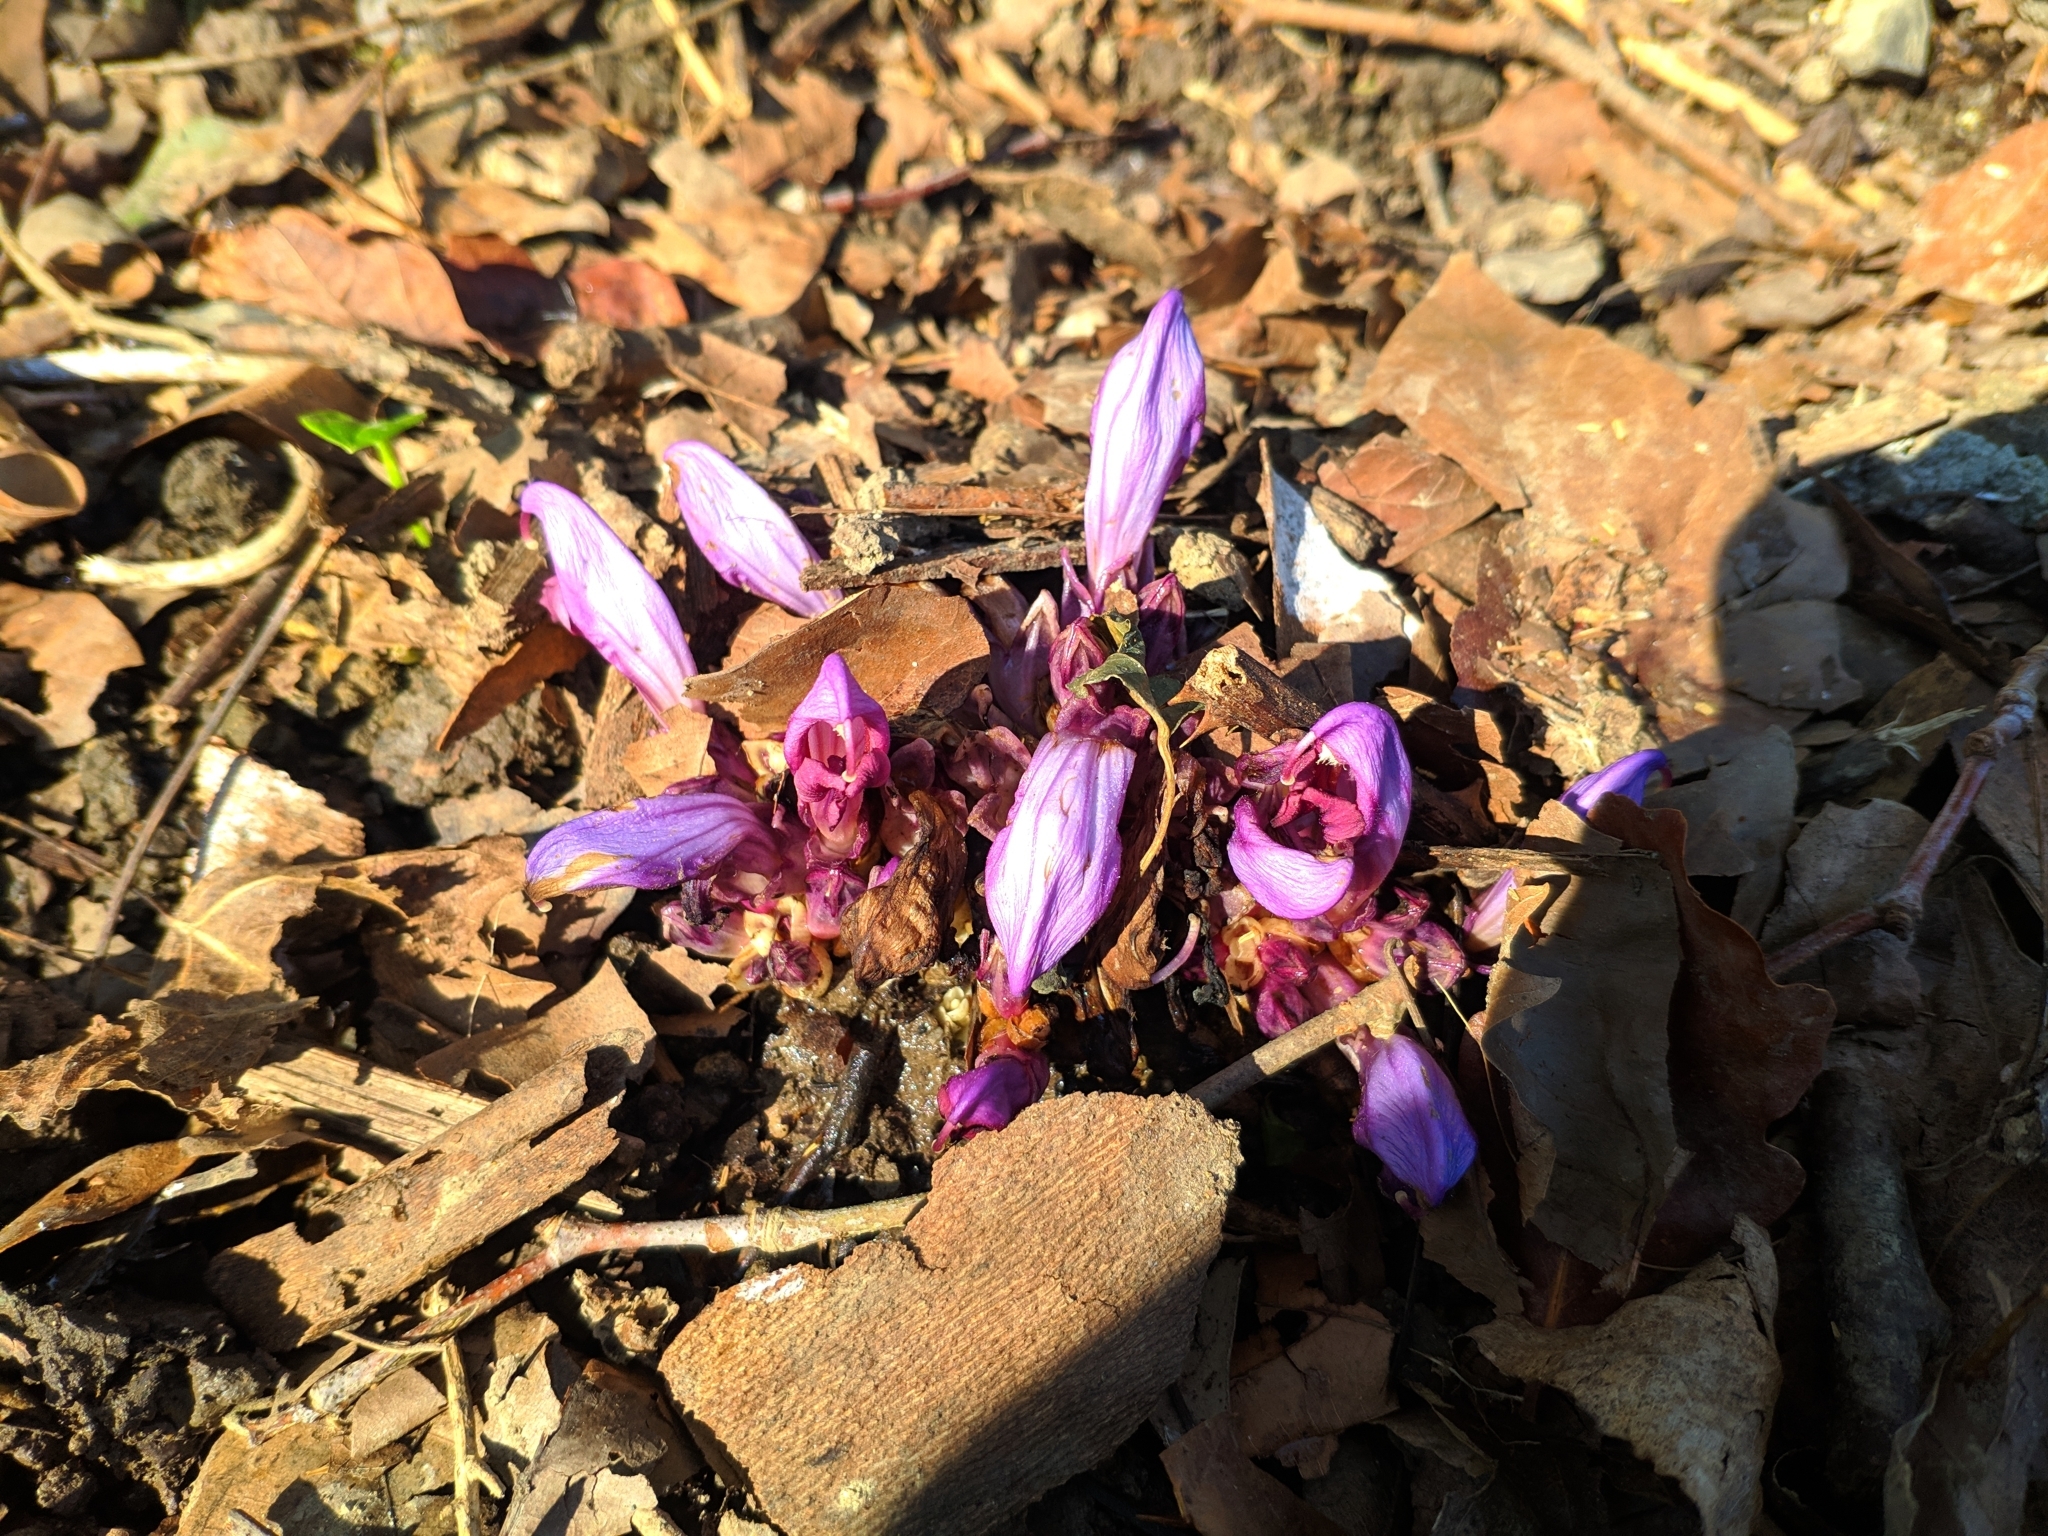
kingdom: Plantae
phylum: Tracheophyta
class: Magnoliopsida
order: Lamiales
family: Orobanchaceae
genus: Lathraea
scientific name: Lathraea clandestina
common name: Purple toothwort
